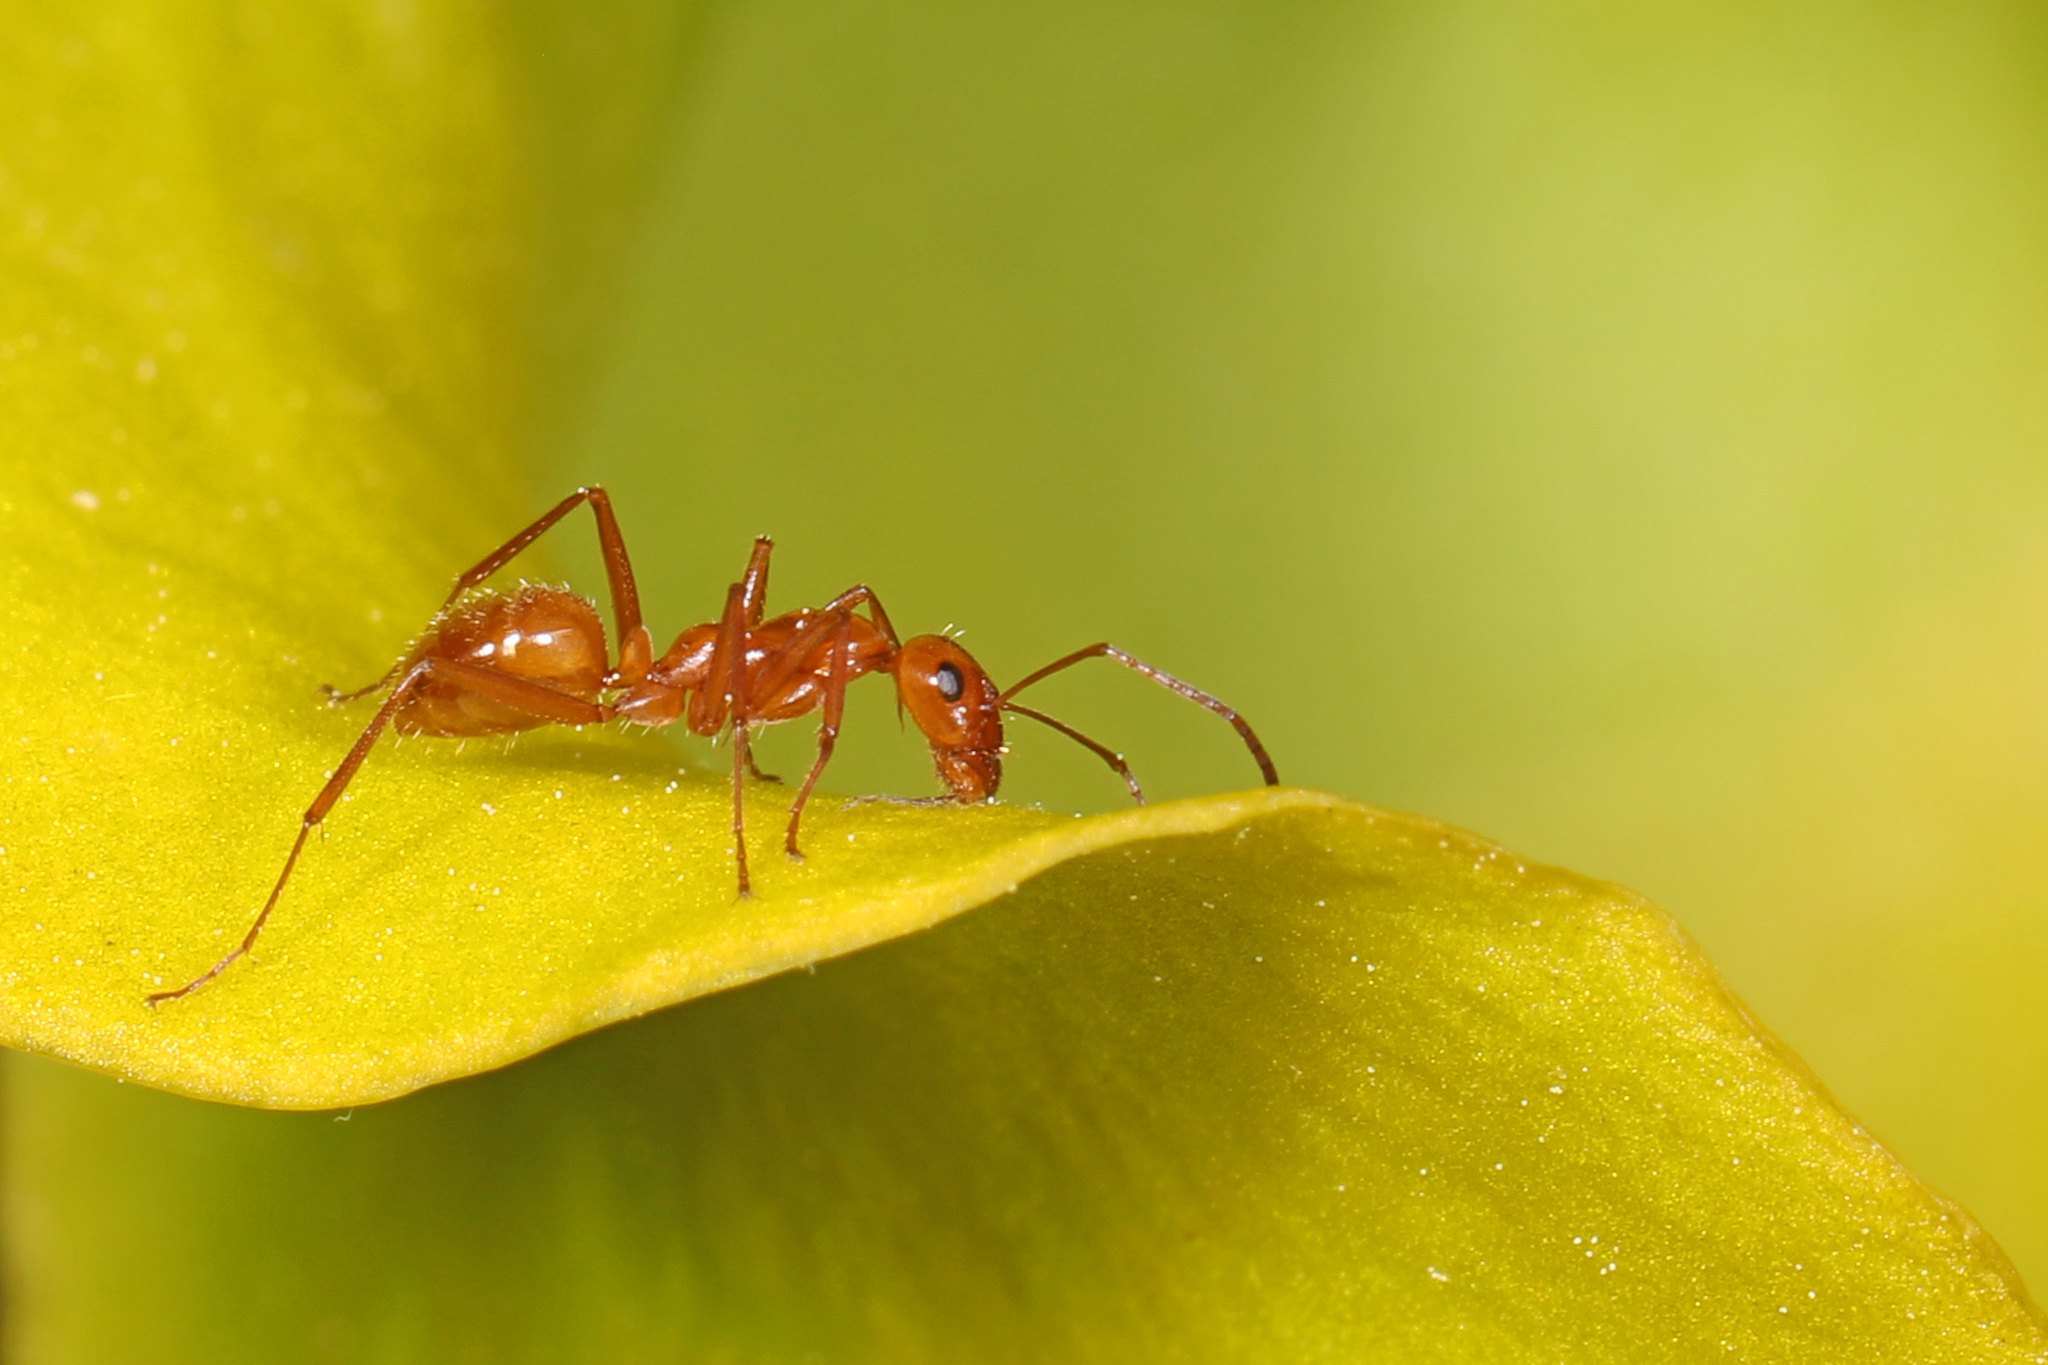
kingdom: Animalia
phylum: Arthropoda
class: Insecta
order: Hymenoptera
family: Formicidae
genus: Formica
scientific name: Formica pallidefulva
